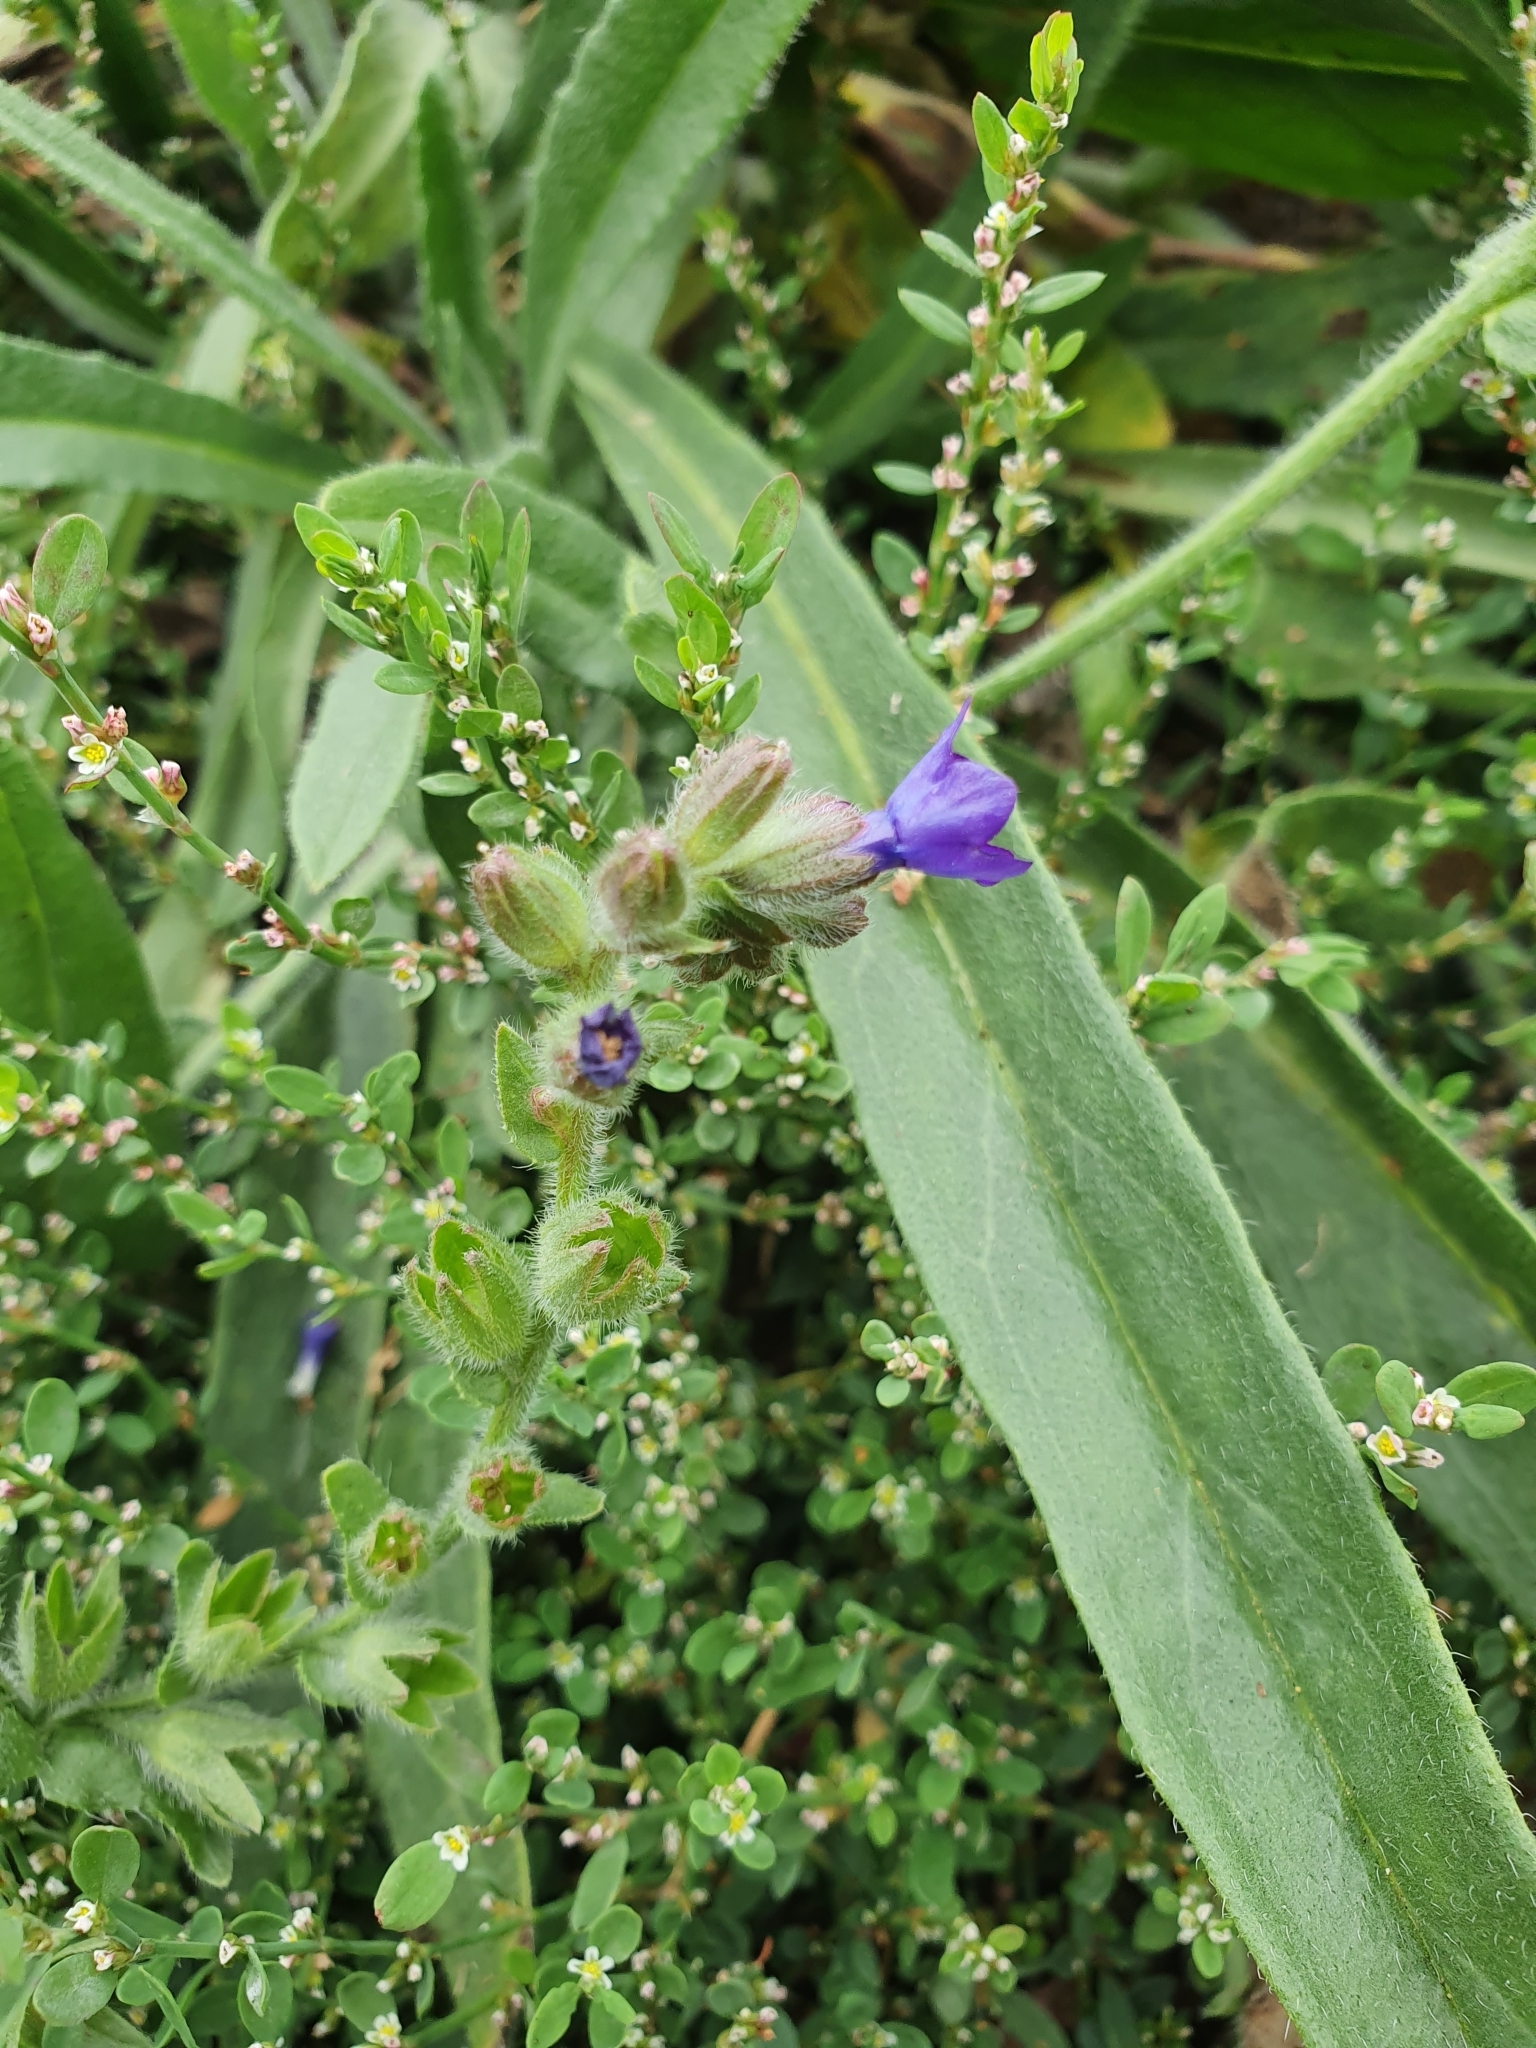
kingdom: Plantae
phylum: Tracheophyta
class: Magnoliopsida
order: Boraginales
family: Boraginaceae
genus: Anchusa
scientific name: Anchusa officinalis
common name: Alkanet
